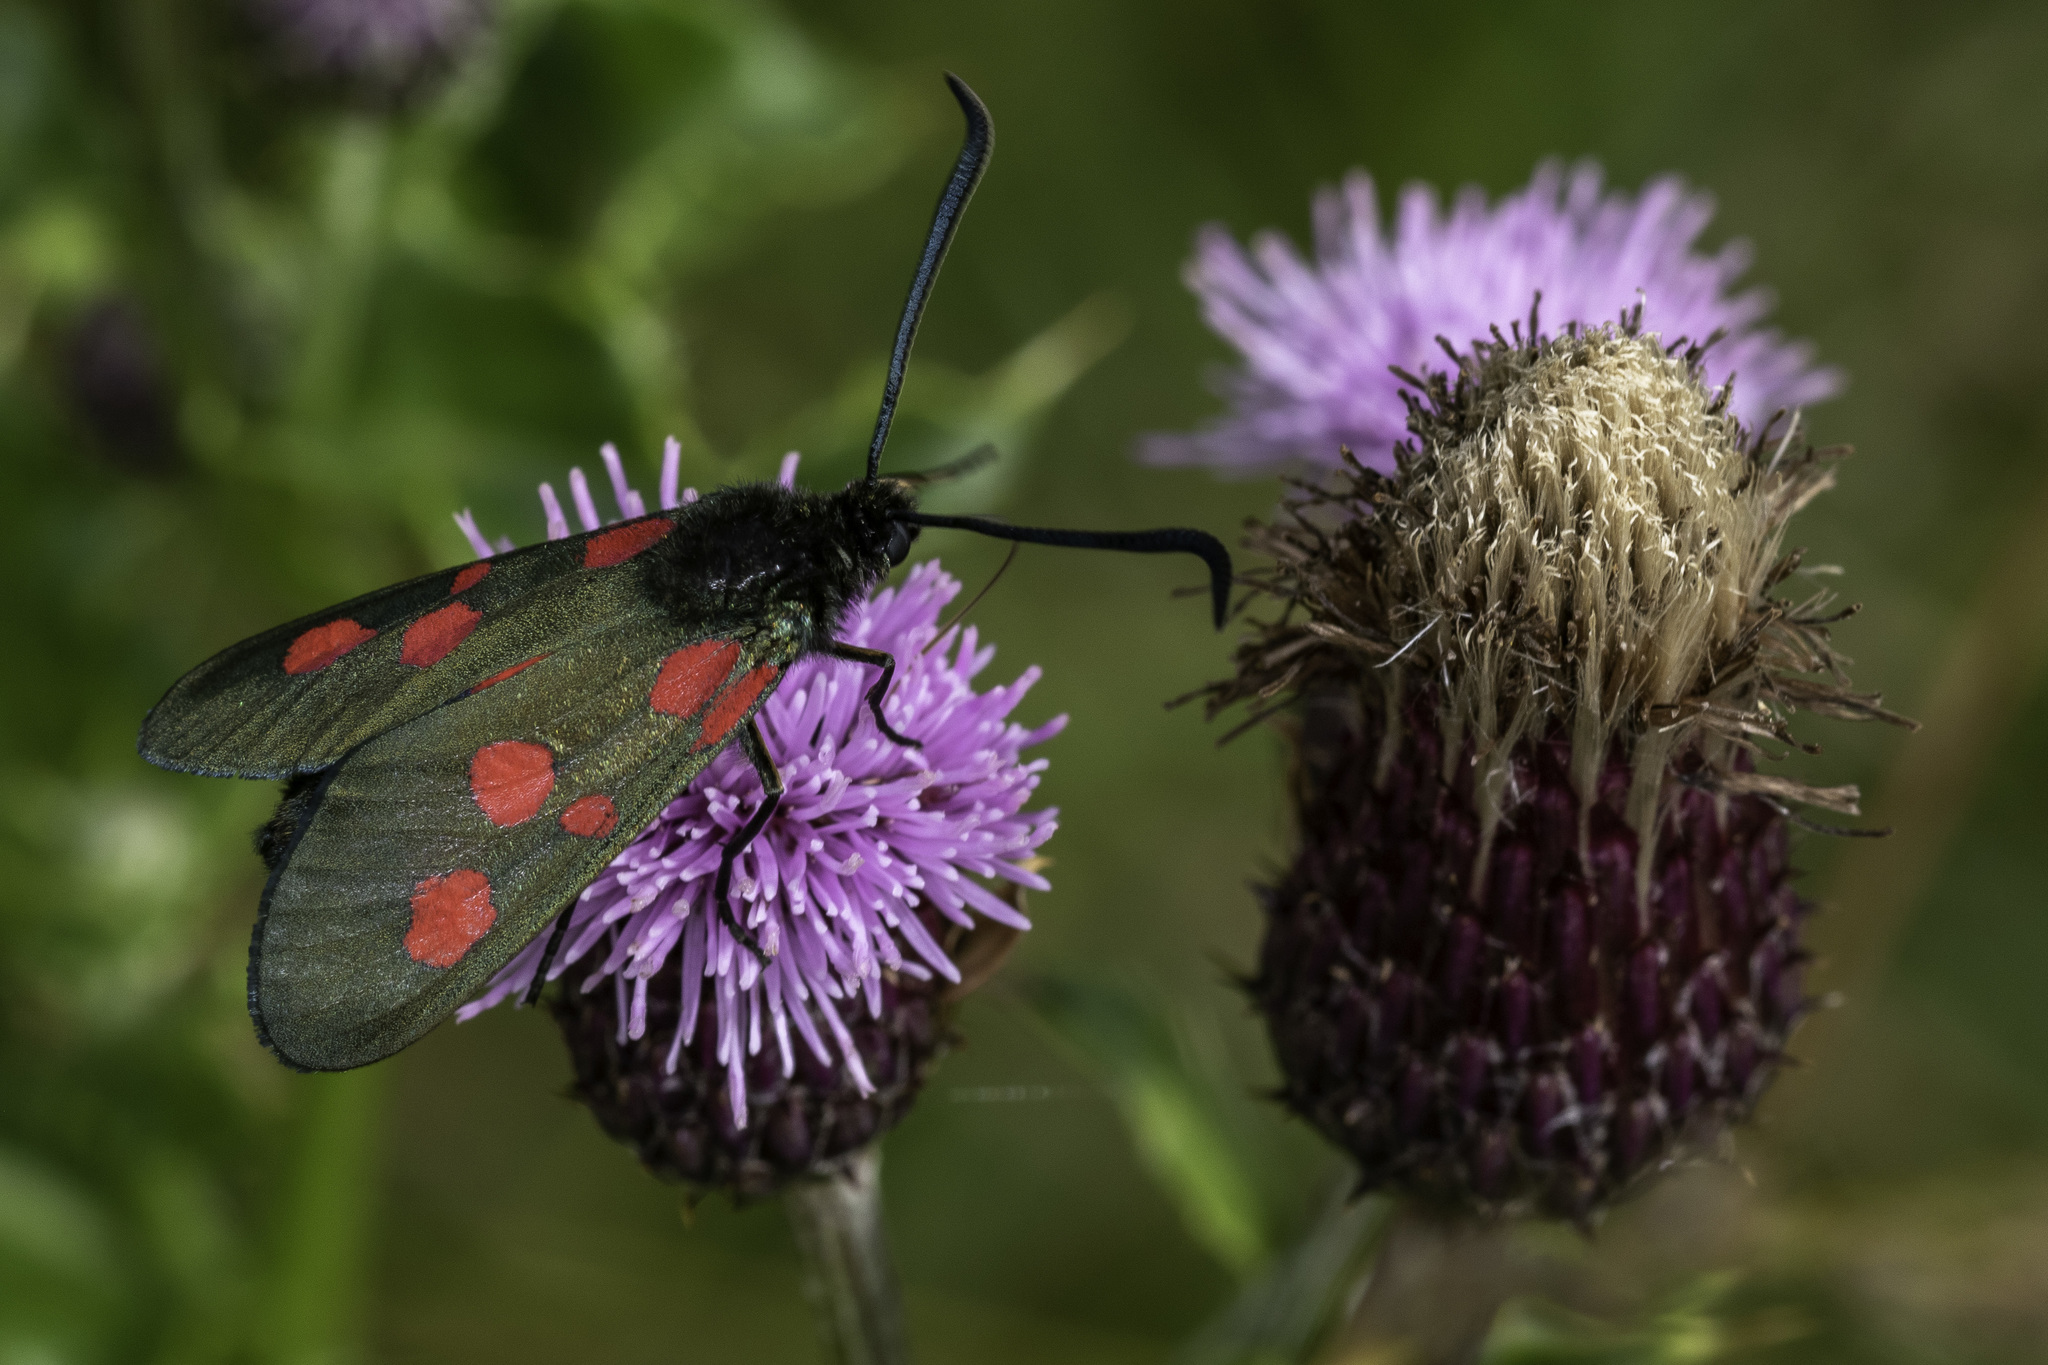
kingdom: Animalia
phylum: Arthropoda
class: Insecta
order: Lepidoptera
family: Zygaenidae
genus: Zygaena
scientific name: Zygaena lonicerae
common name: Narrow-bordered five-spot burnet
